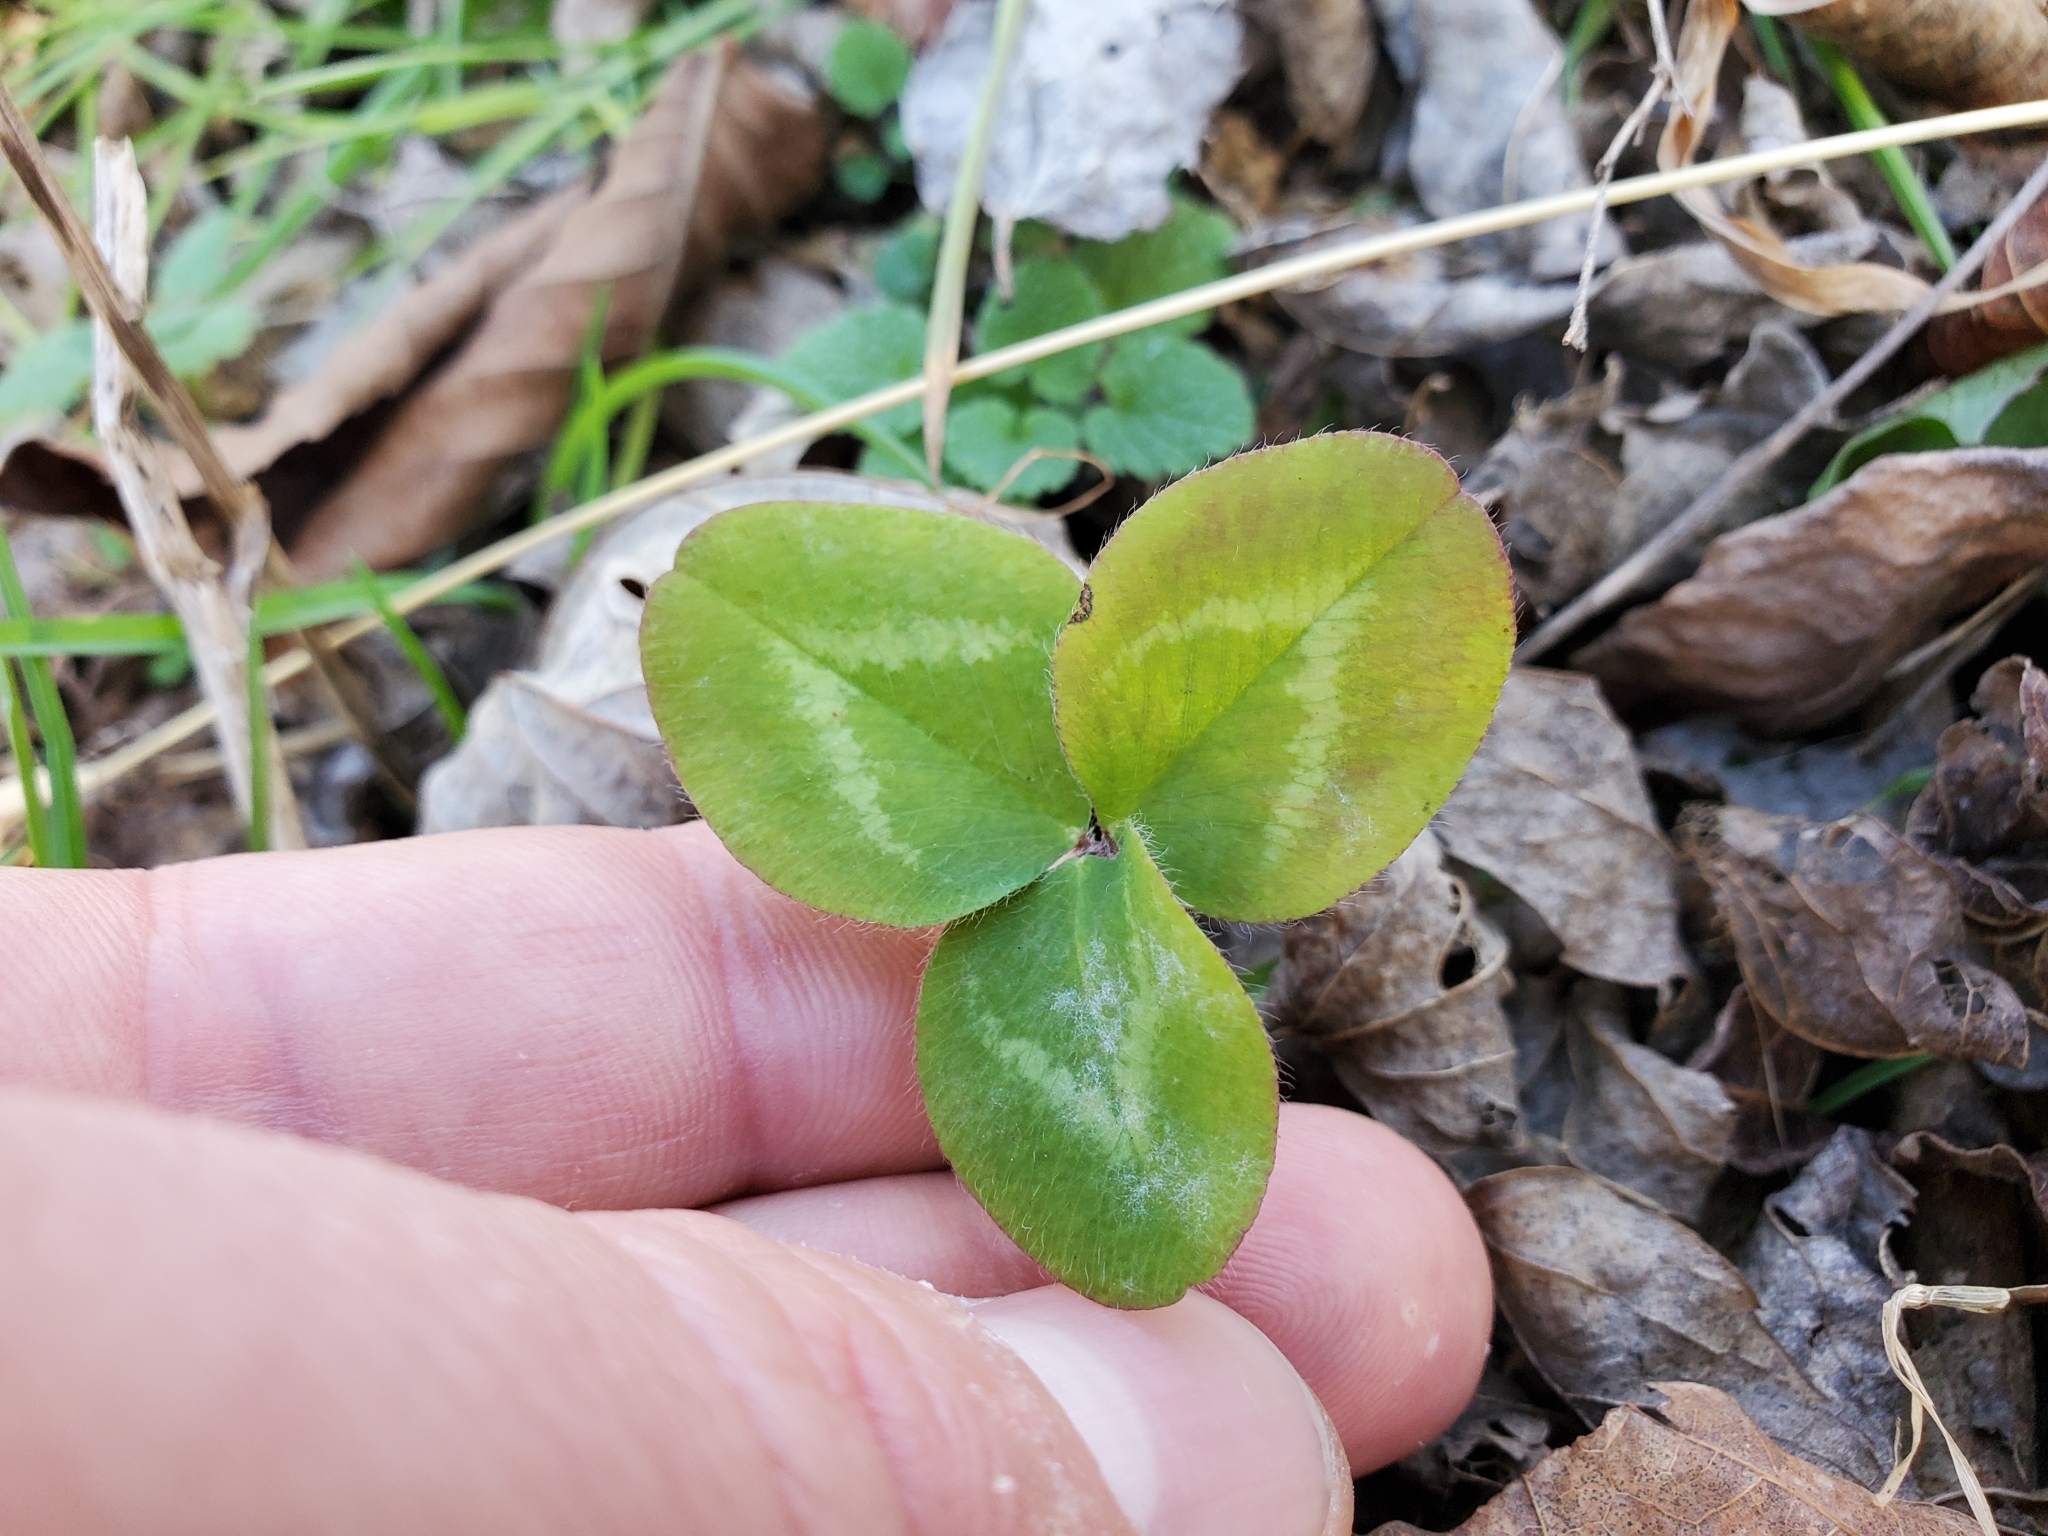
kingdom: Plantae
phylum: Tracheophyta
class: Magnoliopsida
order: Fabales
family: Fabaceae
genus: Trifolium
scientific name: Trifolium pratense
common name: Red clover
